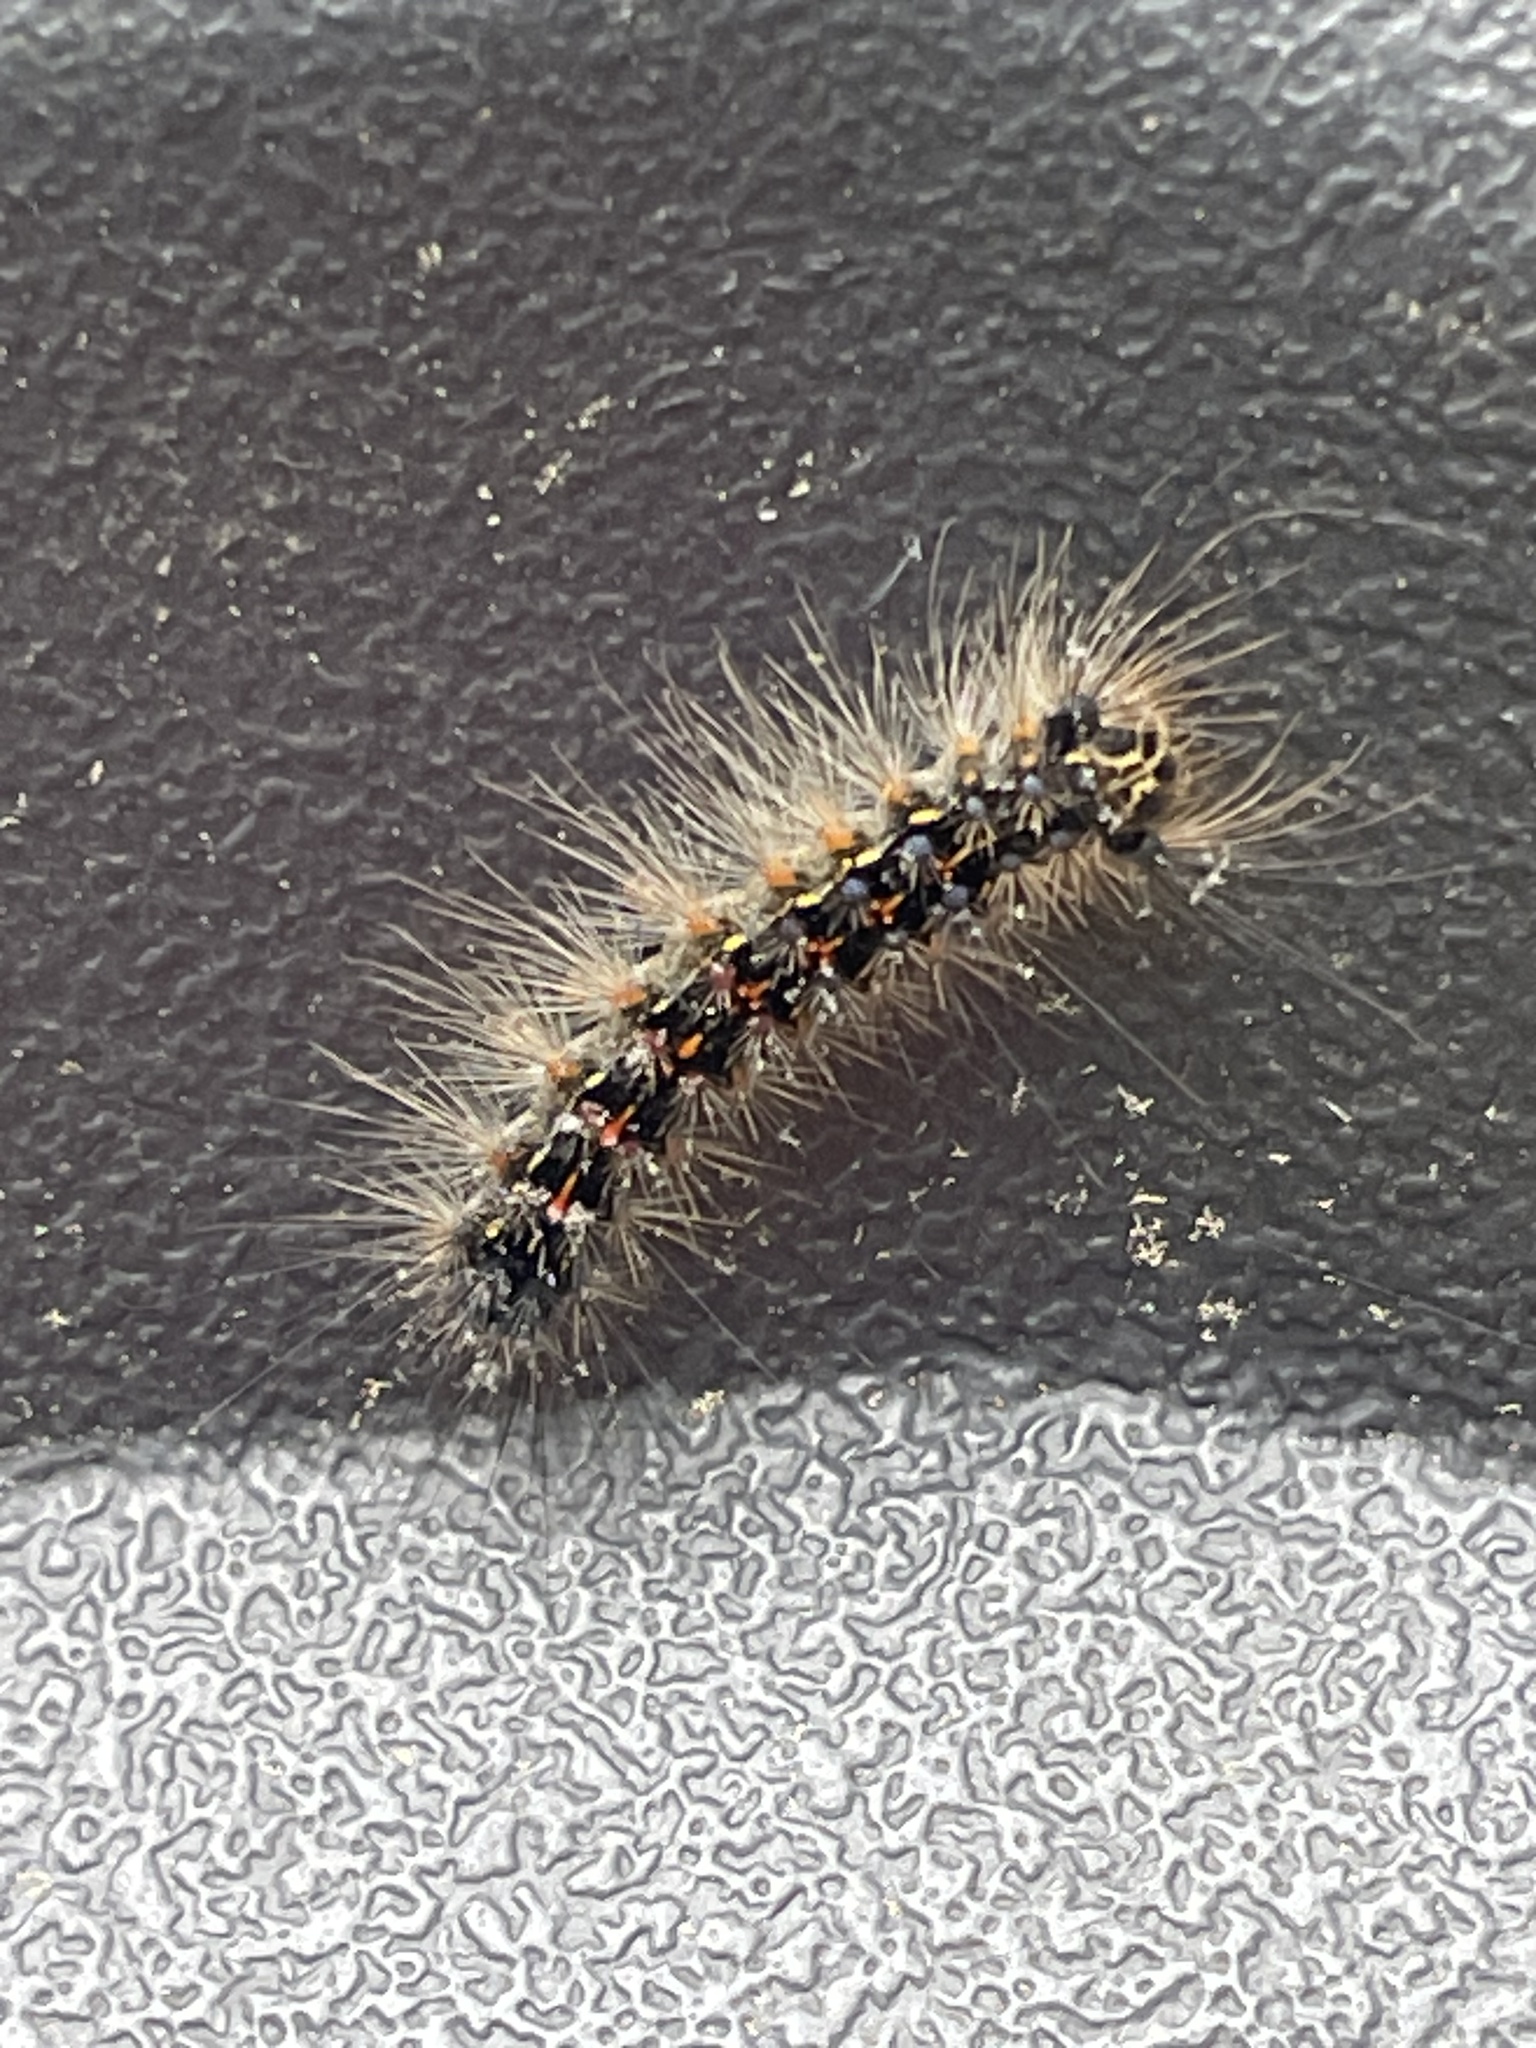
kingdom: Animalia
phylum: Arthropoda
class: Insecta
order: Lepidoptera
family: Erebidae
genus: Lymantria
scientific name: Lymantria dispar
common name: Gypsy moth
